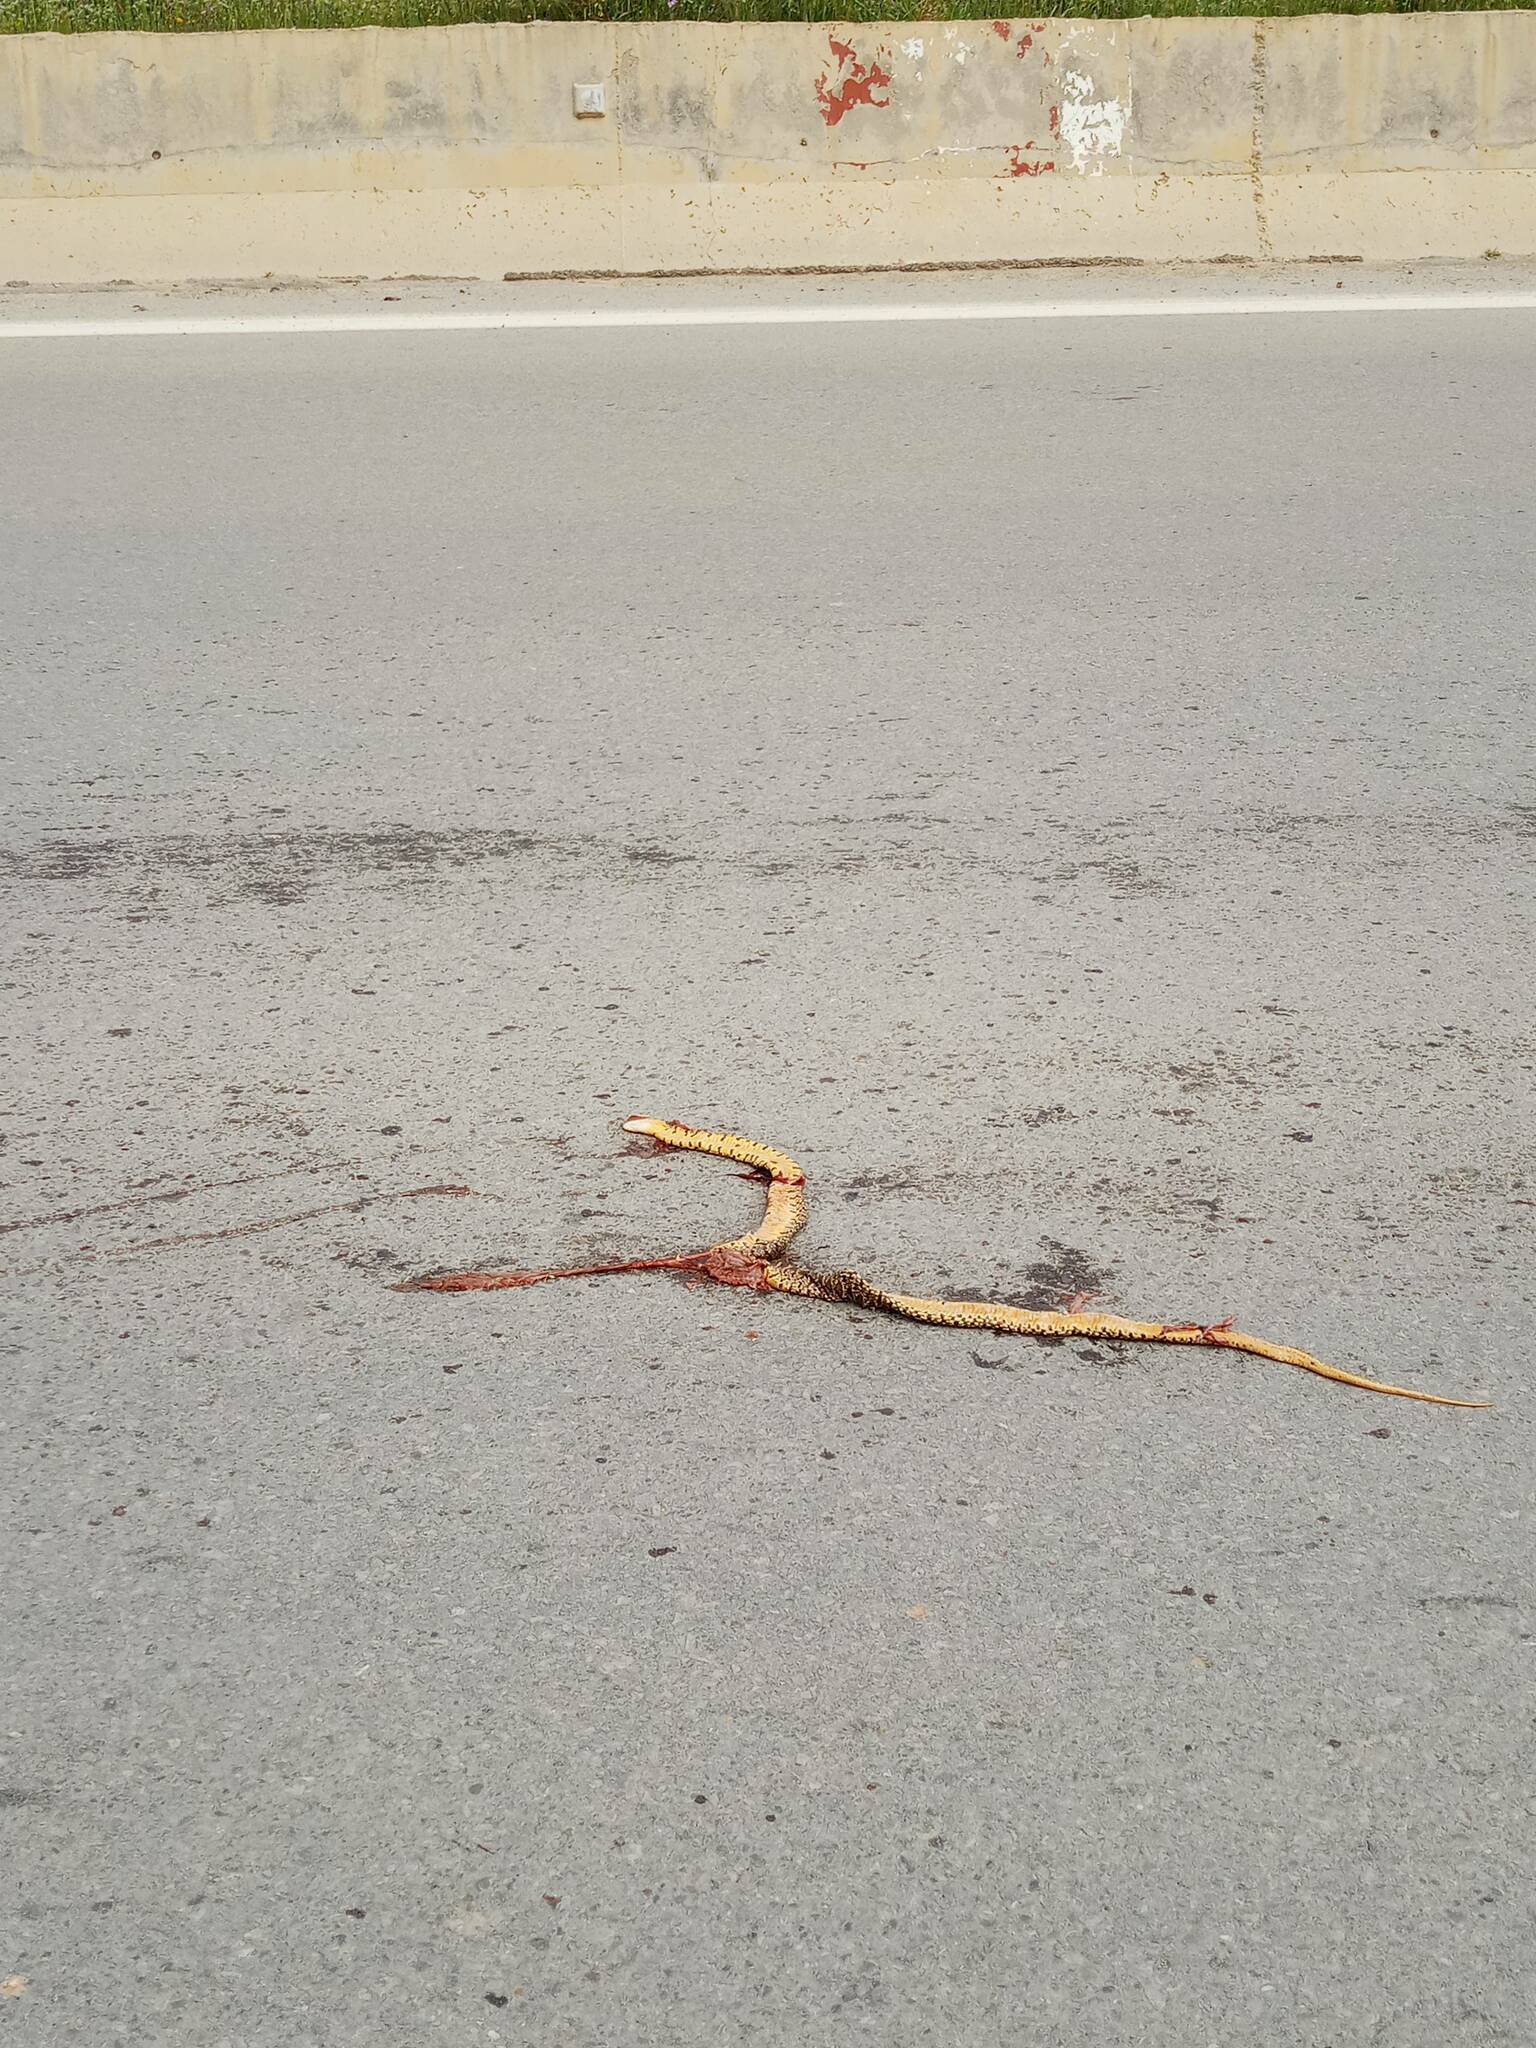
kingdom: Animalia
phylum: Chordata
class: Squamata
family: Colubridae
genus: Hemorrhois
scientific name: Hemorrhois hippocrepis
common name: Horseshoe whip snake
